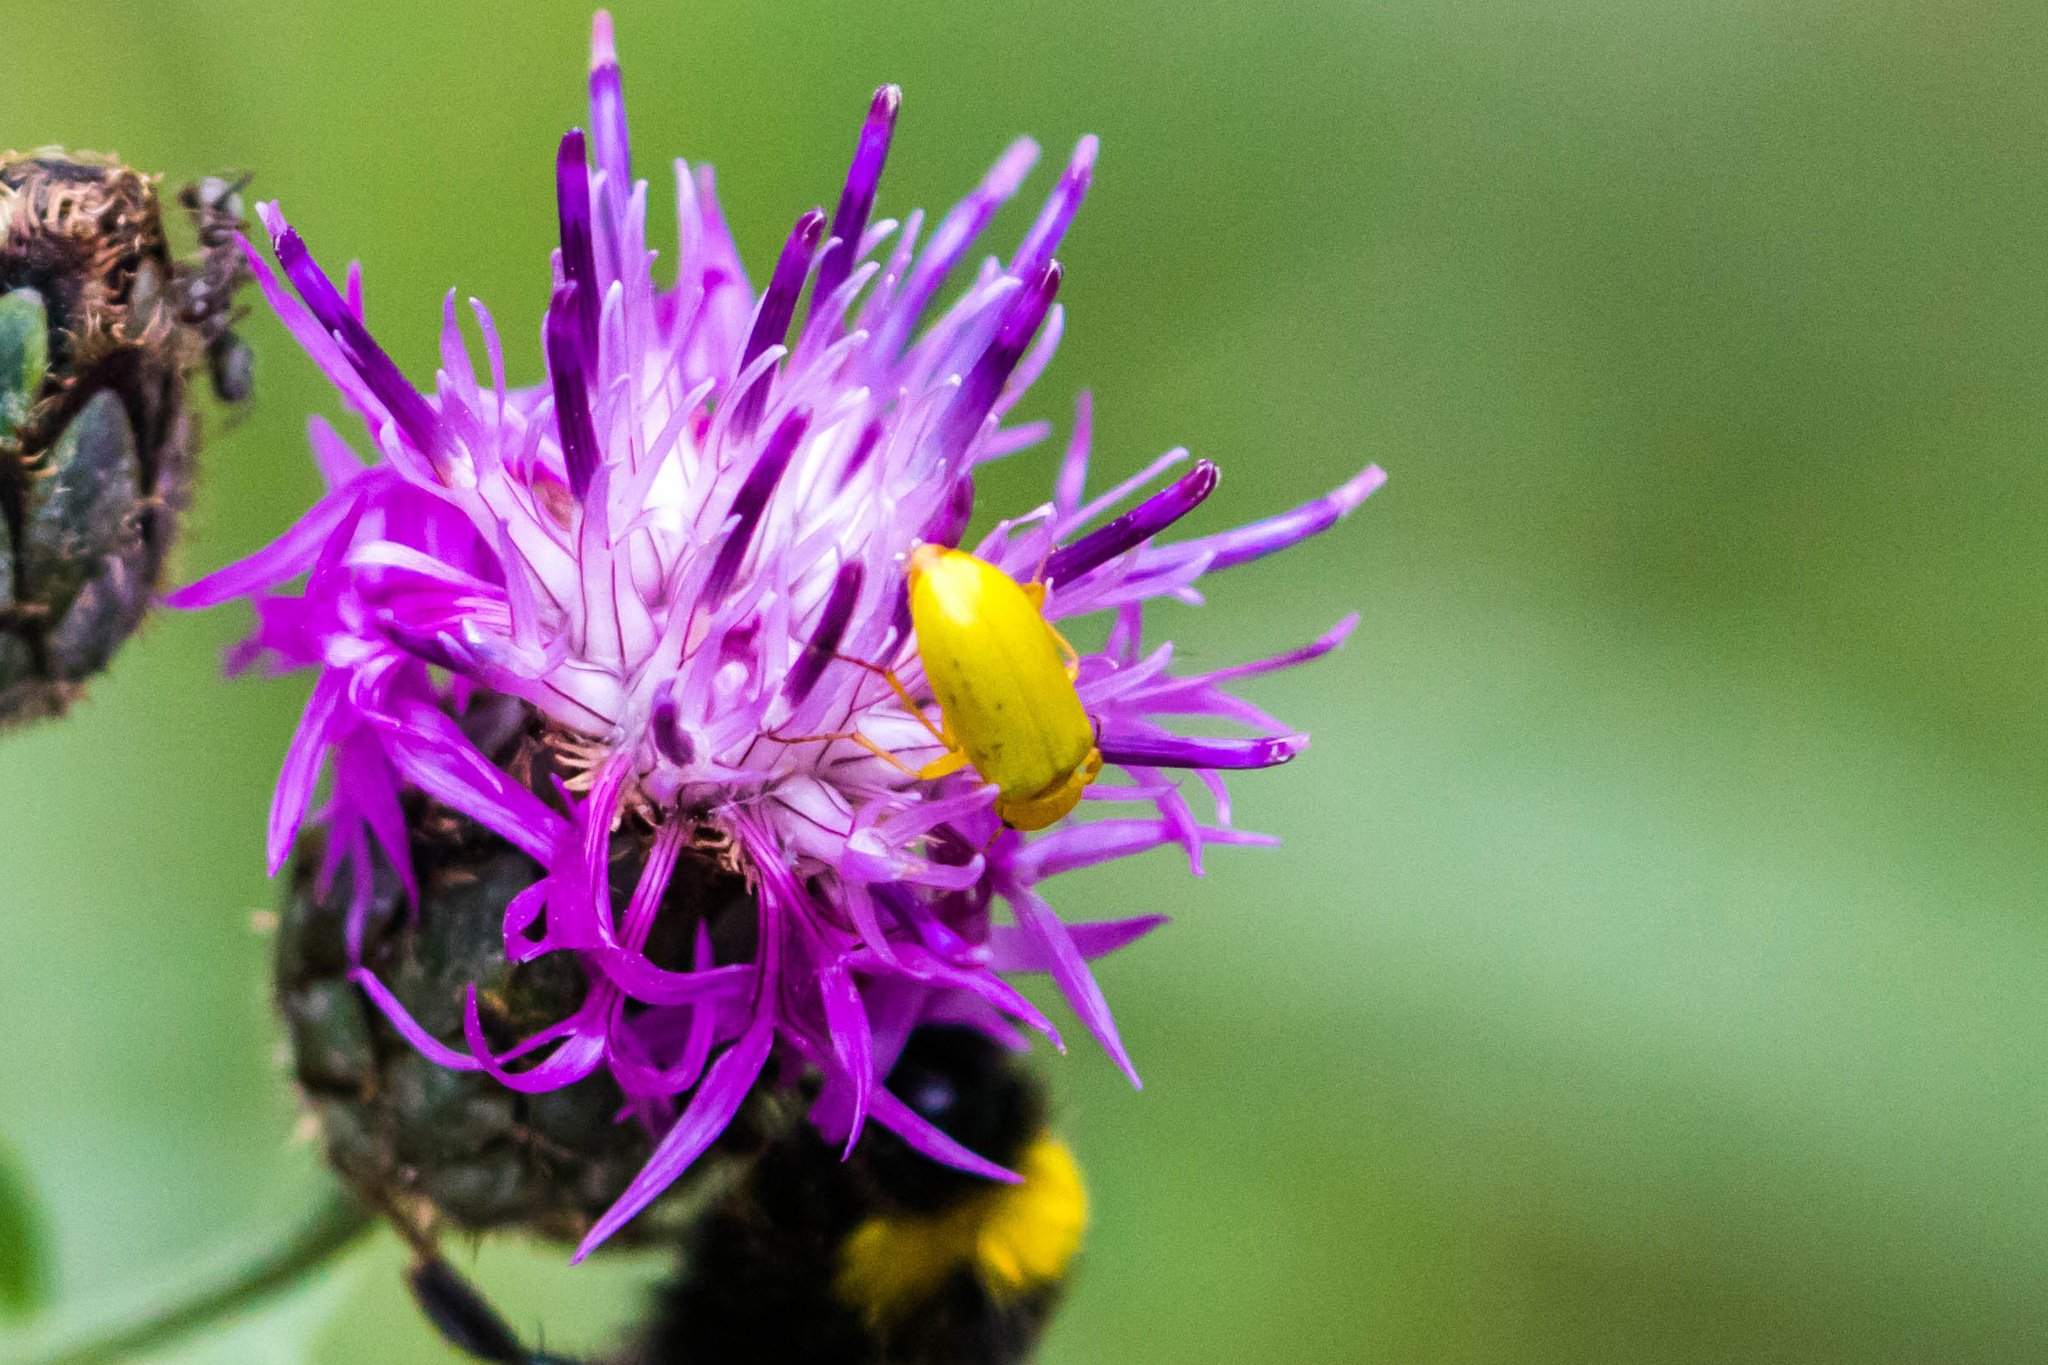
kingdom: Animalia
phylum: Arthropoda
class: Insecta
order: Coleoptera
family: Tenebrionidae
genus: Cteniopus
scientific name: Cteniopus sulphureus
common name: Sulphur beetle
